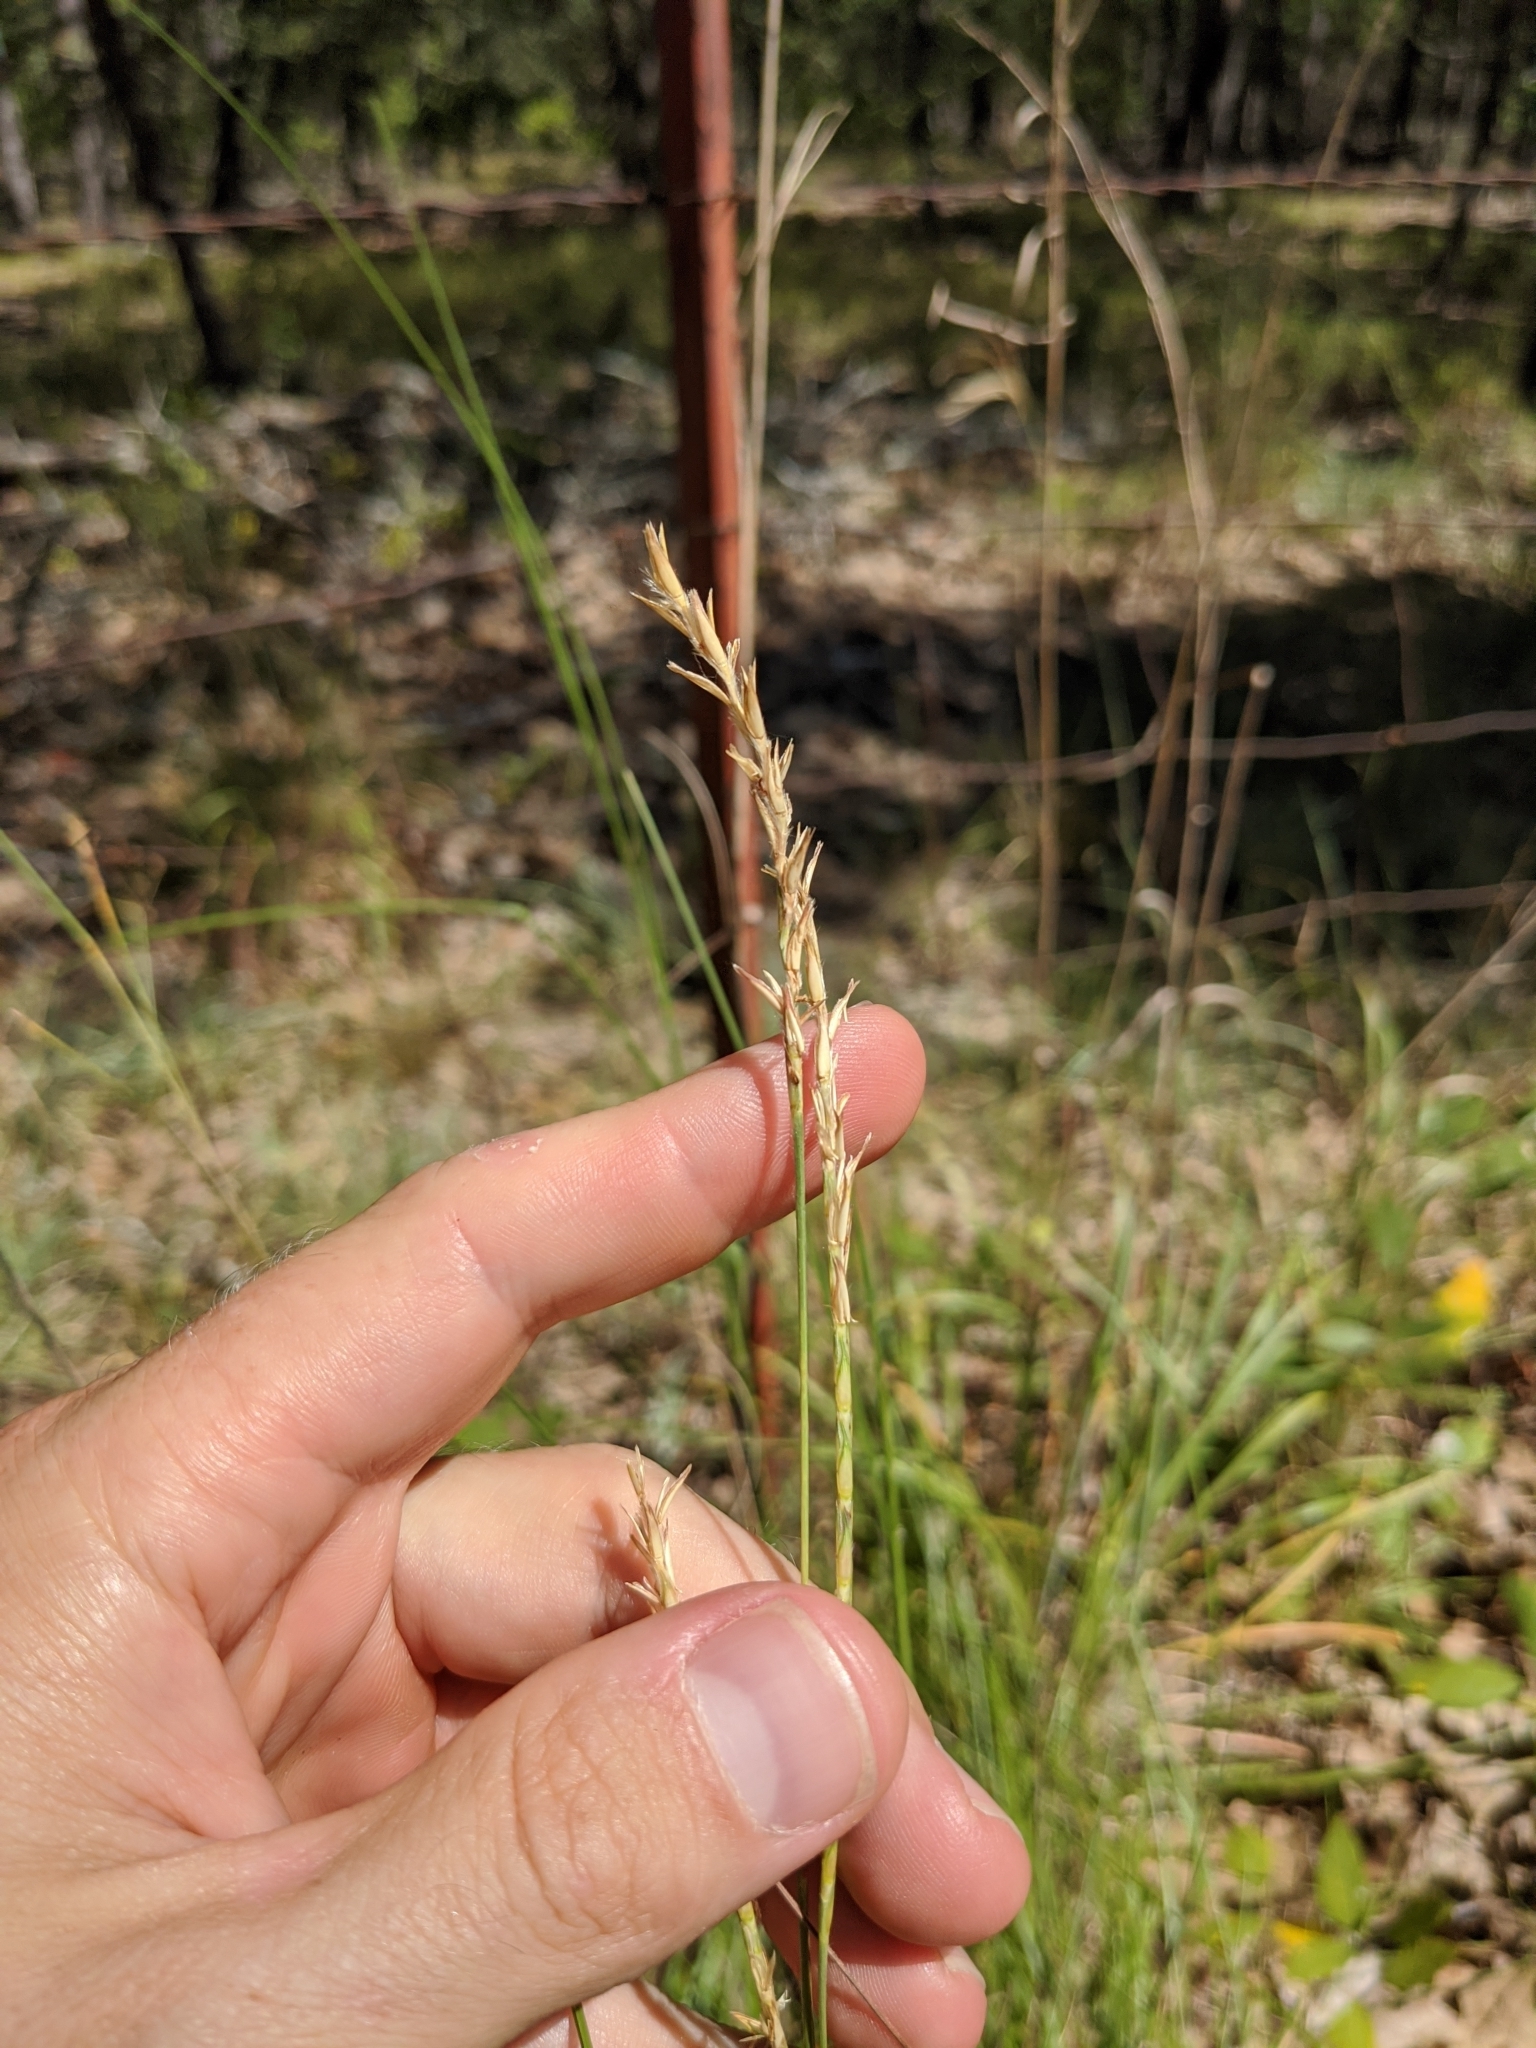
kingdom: Plantae
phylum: Tracheophyta
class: Liliopsida
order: Poales
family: Poaceae
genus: Elionurus
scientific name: Elionurus tripsacoides
